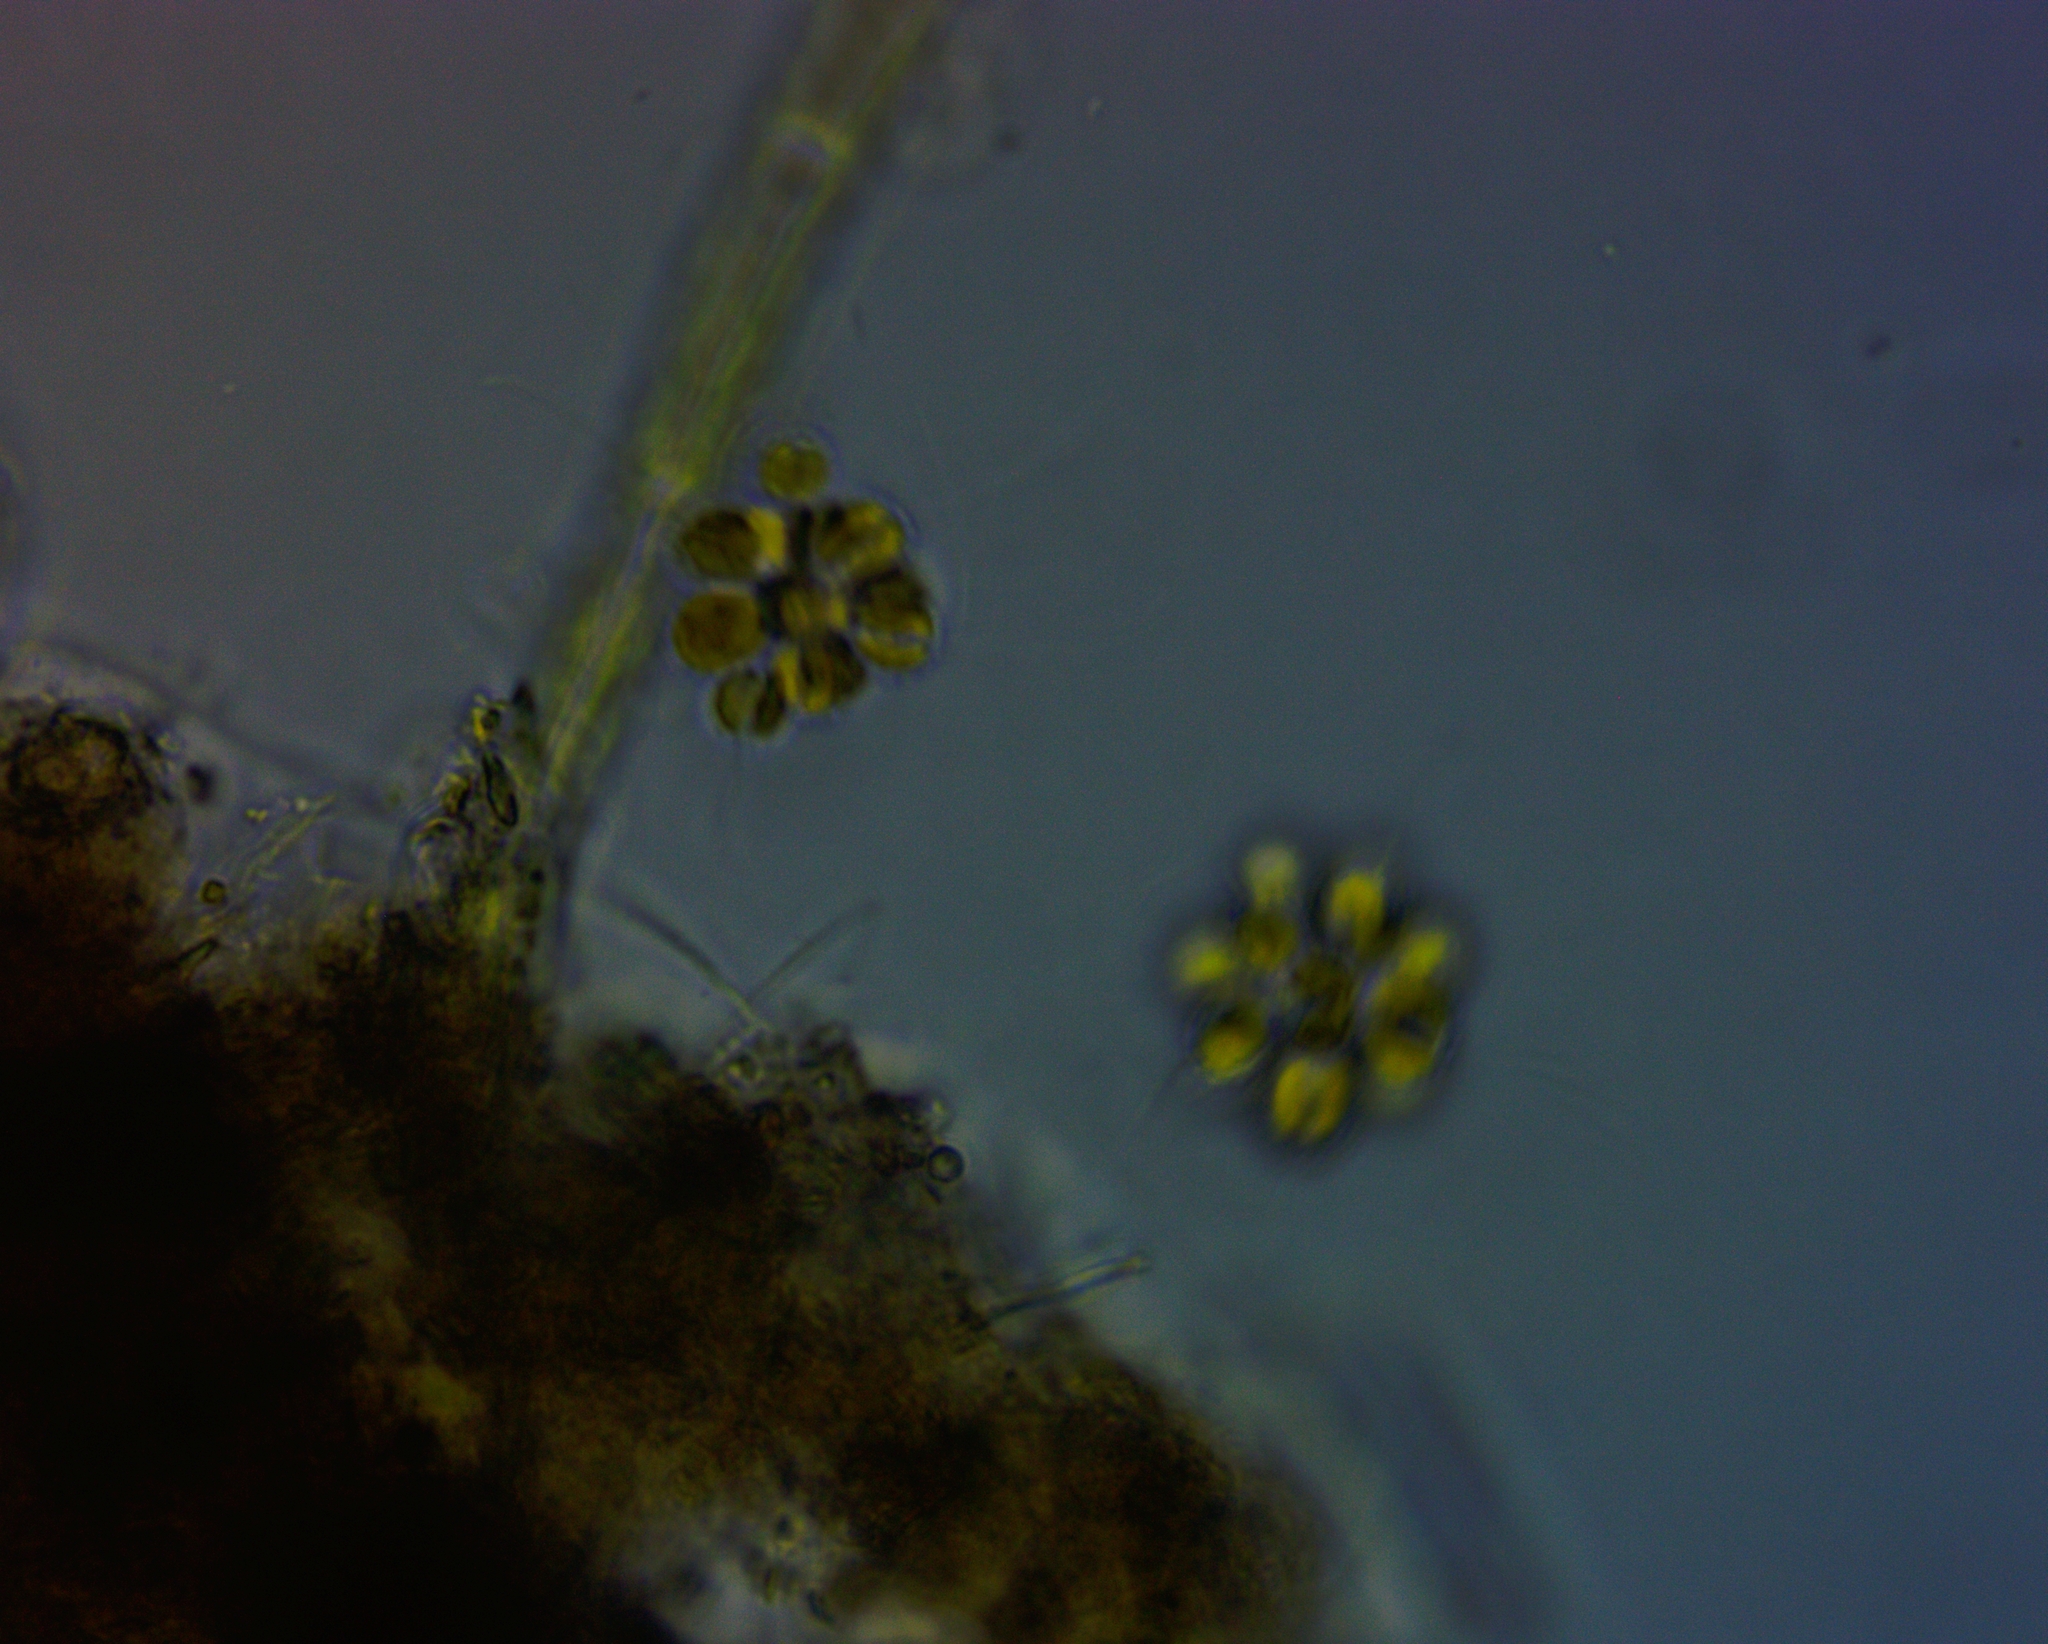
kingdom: Chromista
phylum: Ochrophyta
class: Synurophyceae
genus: Synura
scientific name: Synura
